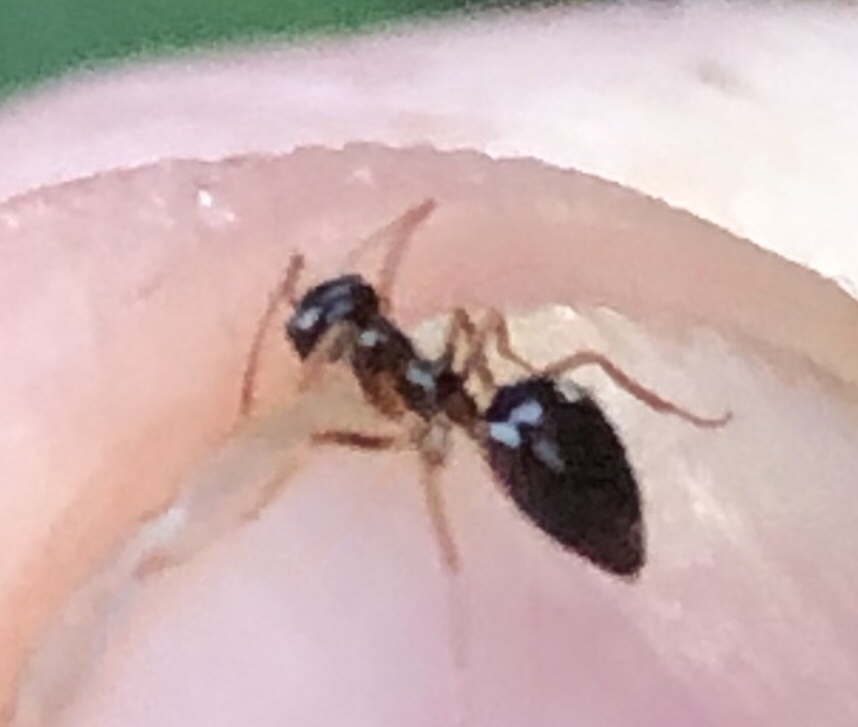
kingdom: Animalia
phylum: Arthropoda
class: Insecta
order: Hymenoptera
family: Formicidae
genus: Prenolepis
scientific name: Prenolepis imparis
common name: Small honey ant
